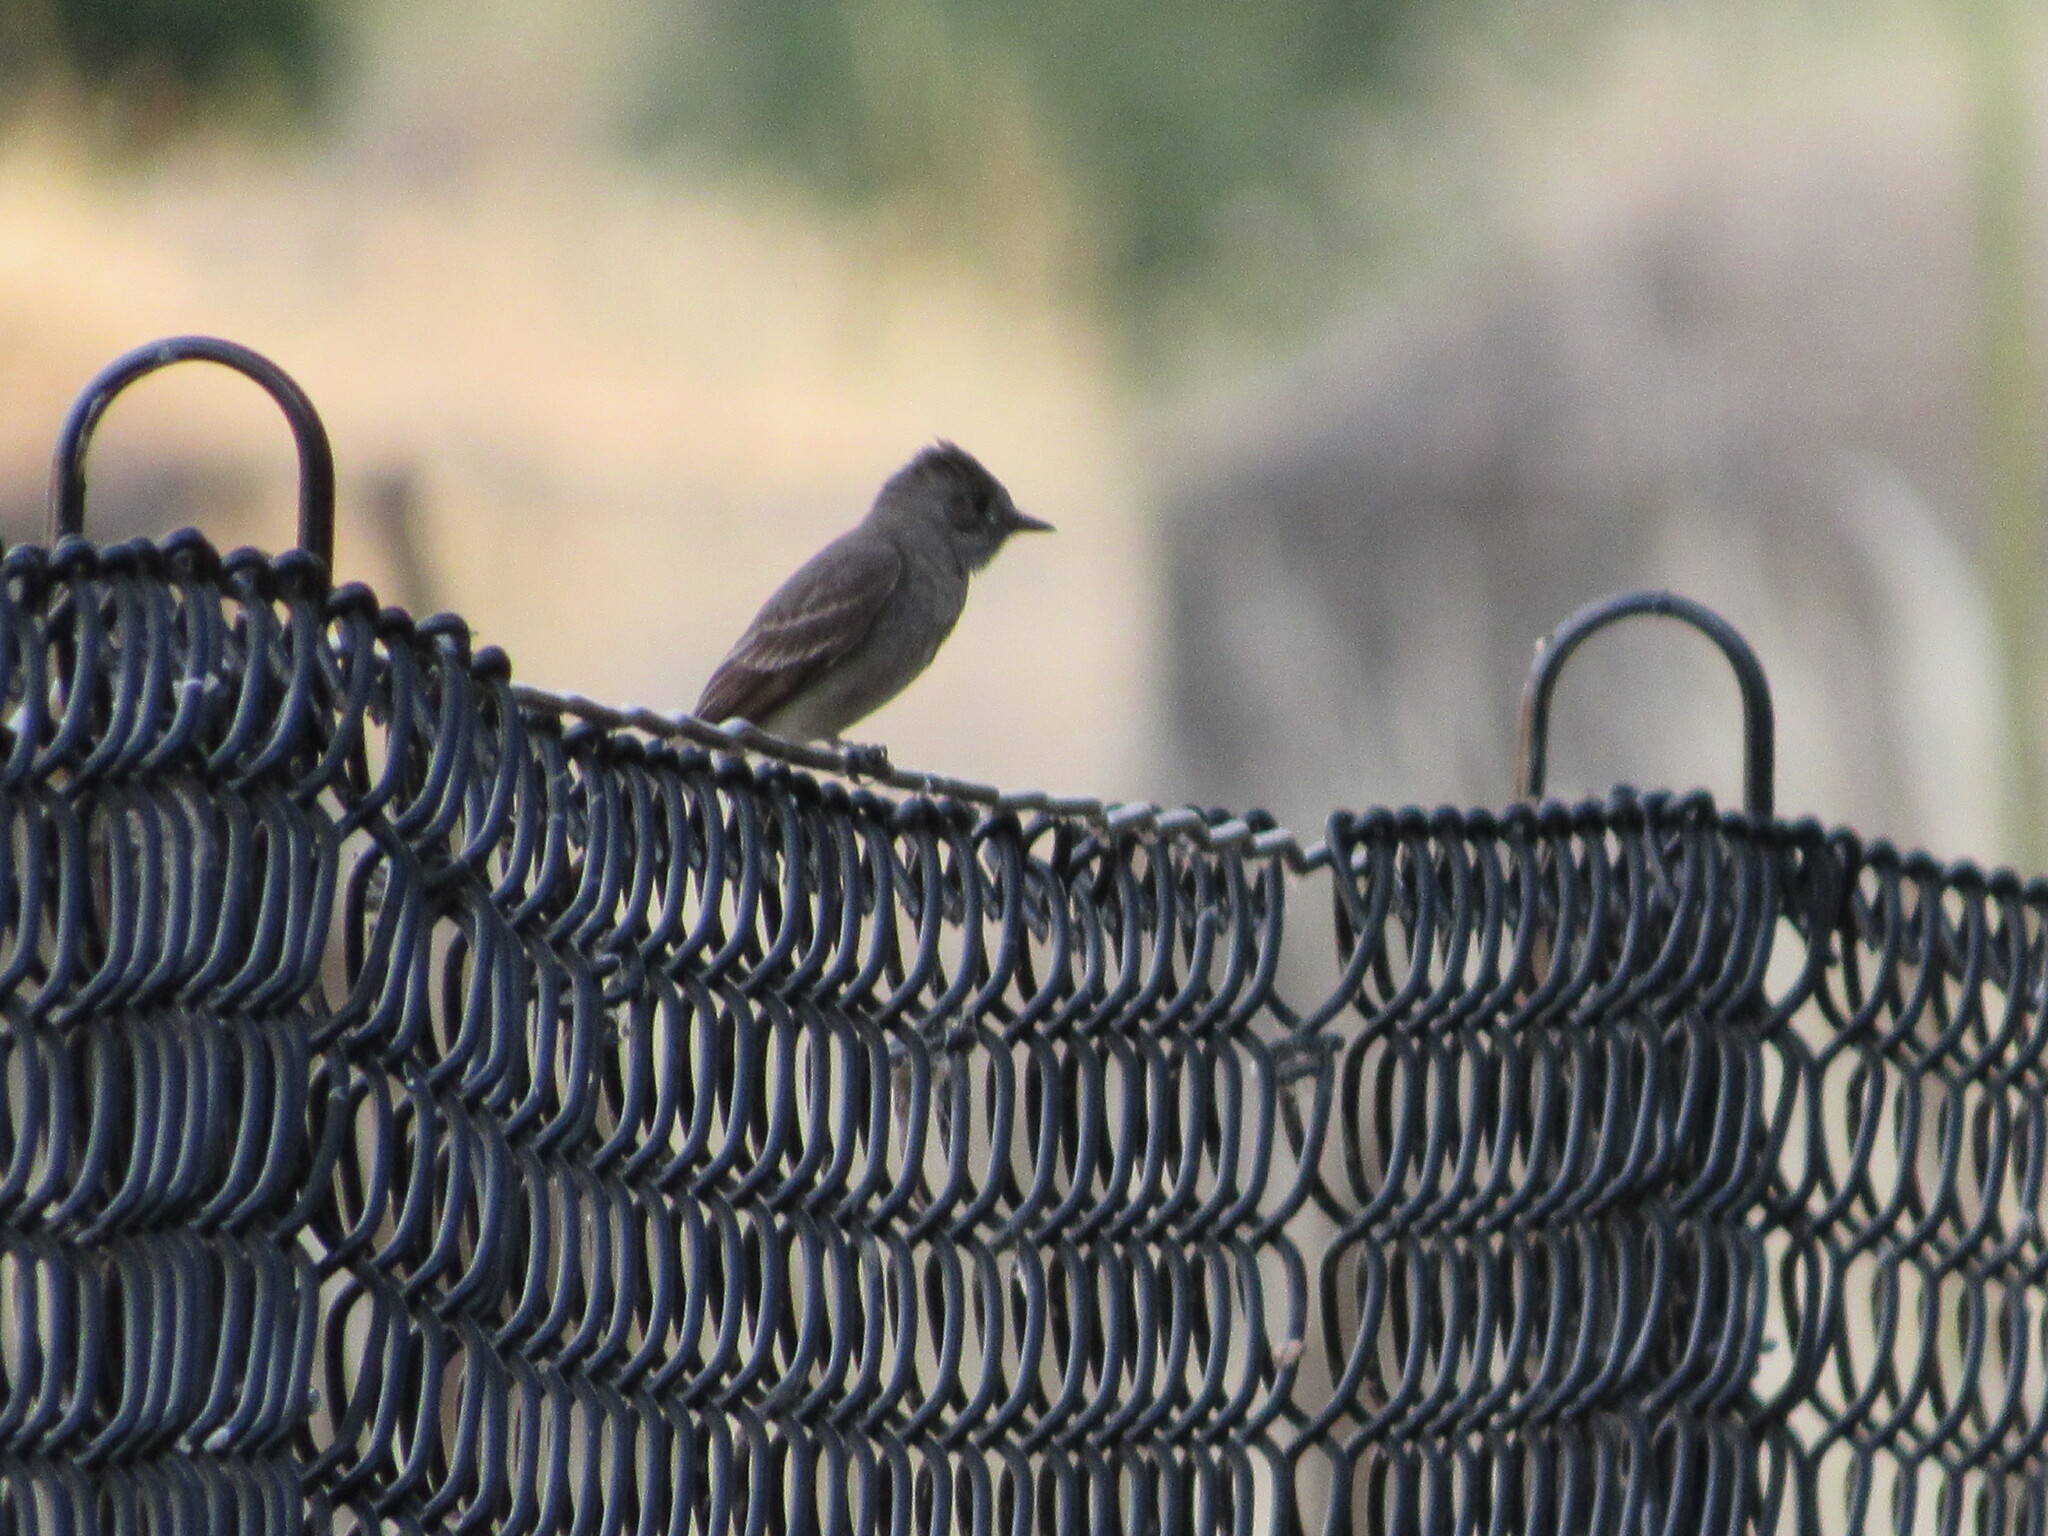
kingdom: Animalia
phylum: Chordata
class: Aves
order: Passeriformes
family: Tyrannidae
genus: Contopus
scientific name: Contopus sordidulus
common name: Western wood-pewee
